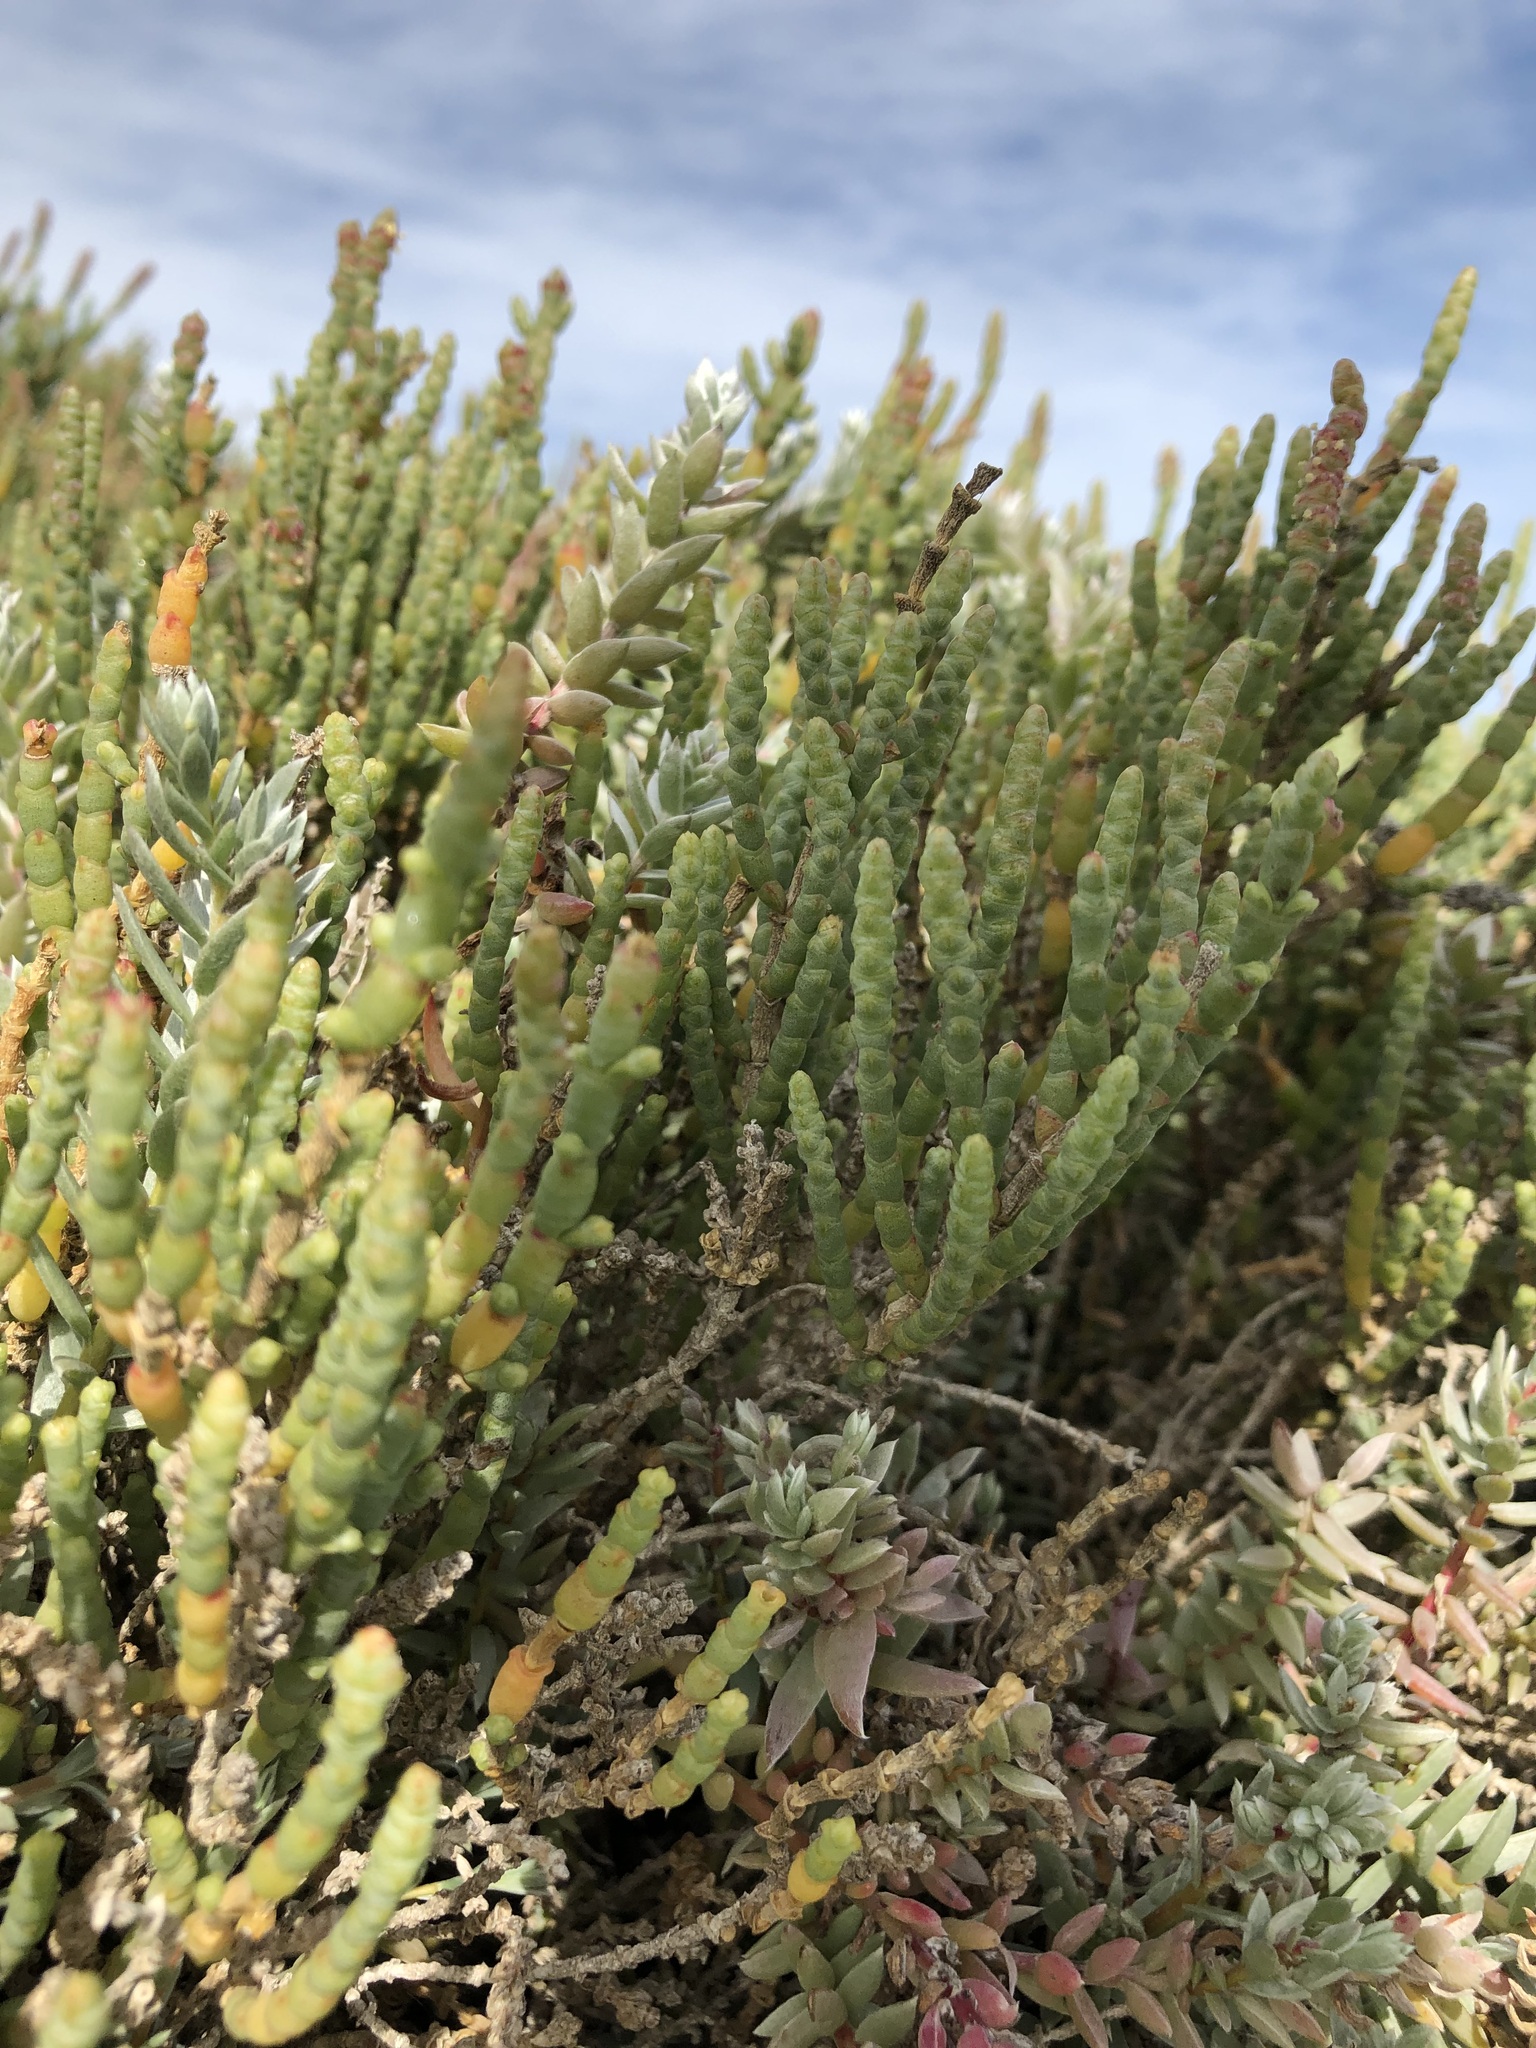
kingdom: Plantae
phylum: Tracheophyta
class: Magnoliopsida
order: Caryophyllales
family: Amaranthaceae
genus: Salicornia
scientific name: Salicornia littorea
